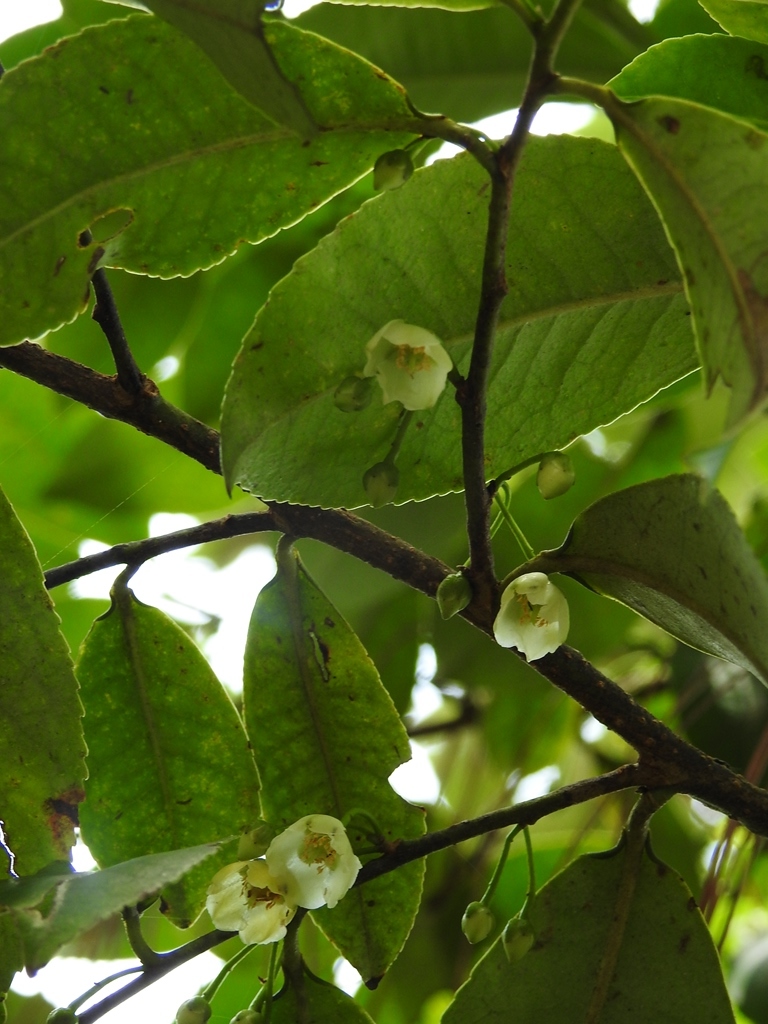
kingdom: Plantae
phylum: Tracheophyta
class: Magnoliopsida
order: Ericales
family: Pentaphylacaceae
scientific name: Pentaphylacaceae
